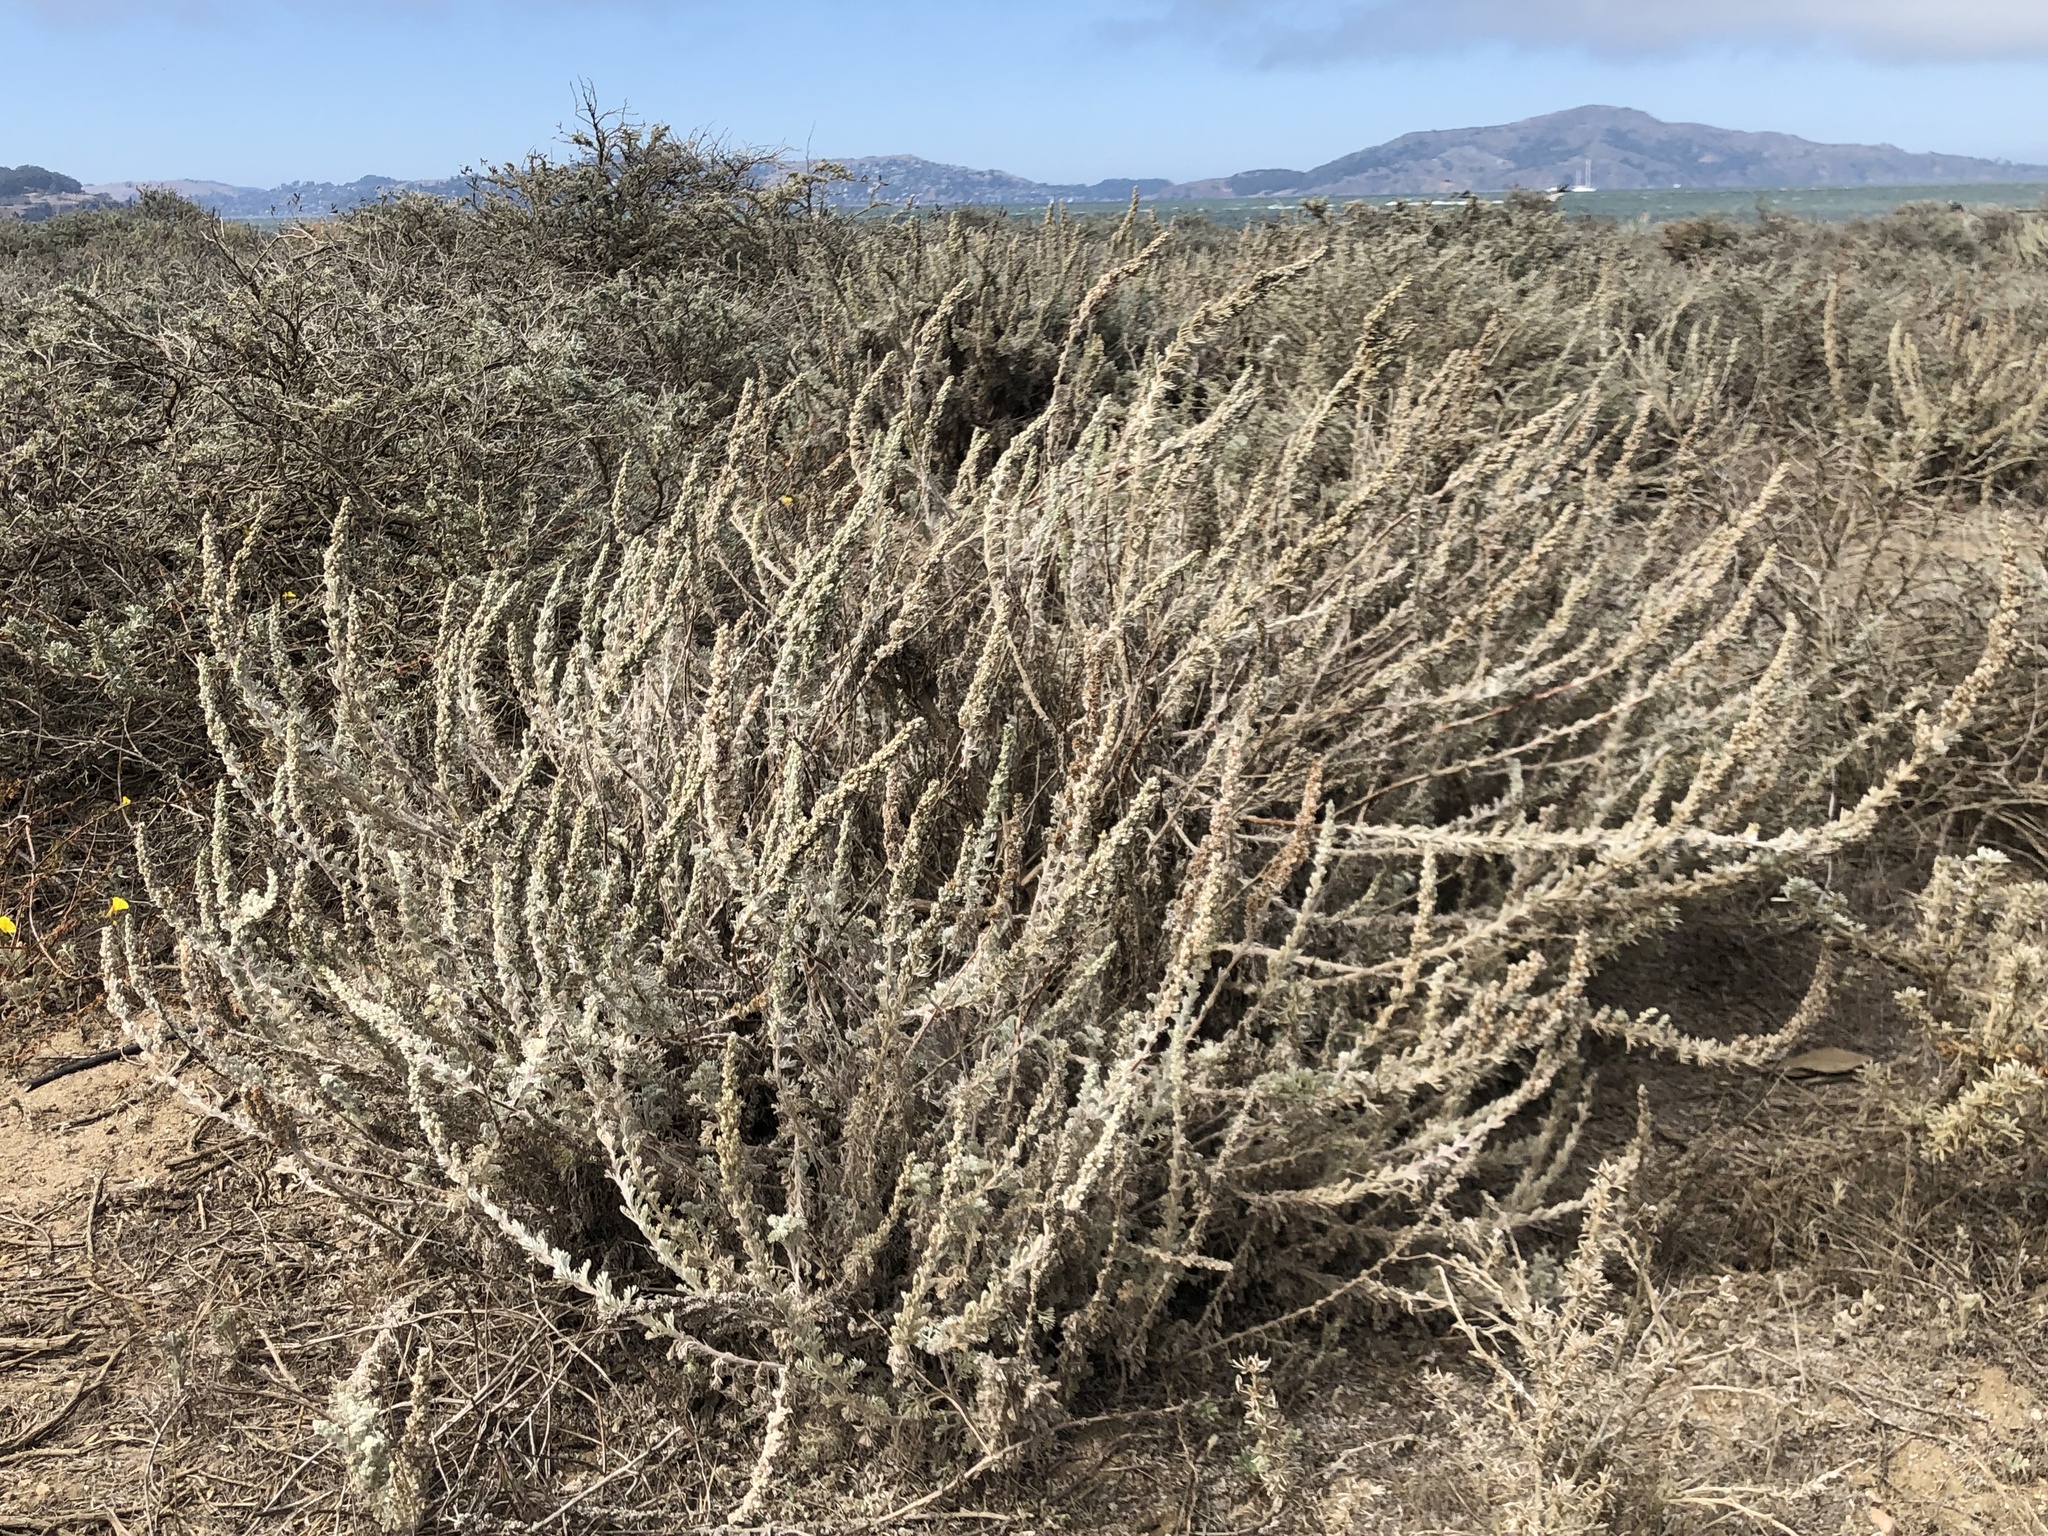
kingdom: Plantae
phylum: Tracheophyta
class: Magnoliopsida
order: Asterales
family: Asteraceae
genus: Artemisia
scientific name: Artemisia pycnocephala
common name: Coastal sagewort
